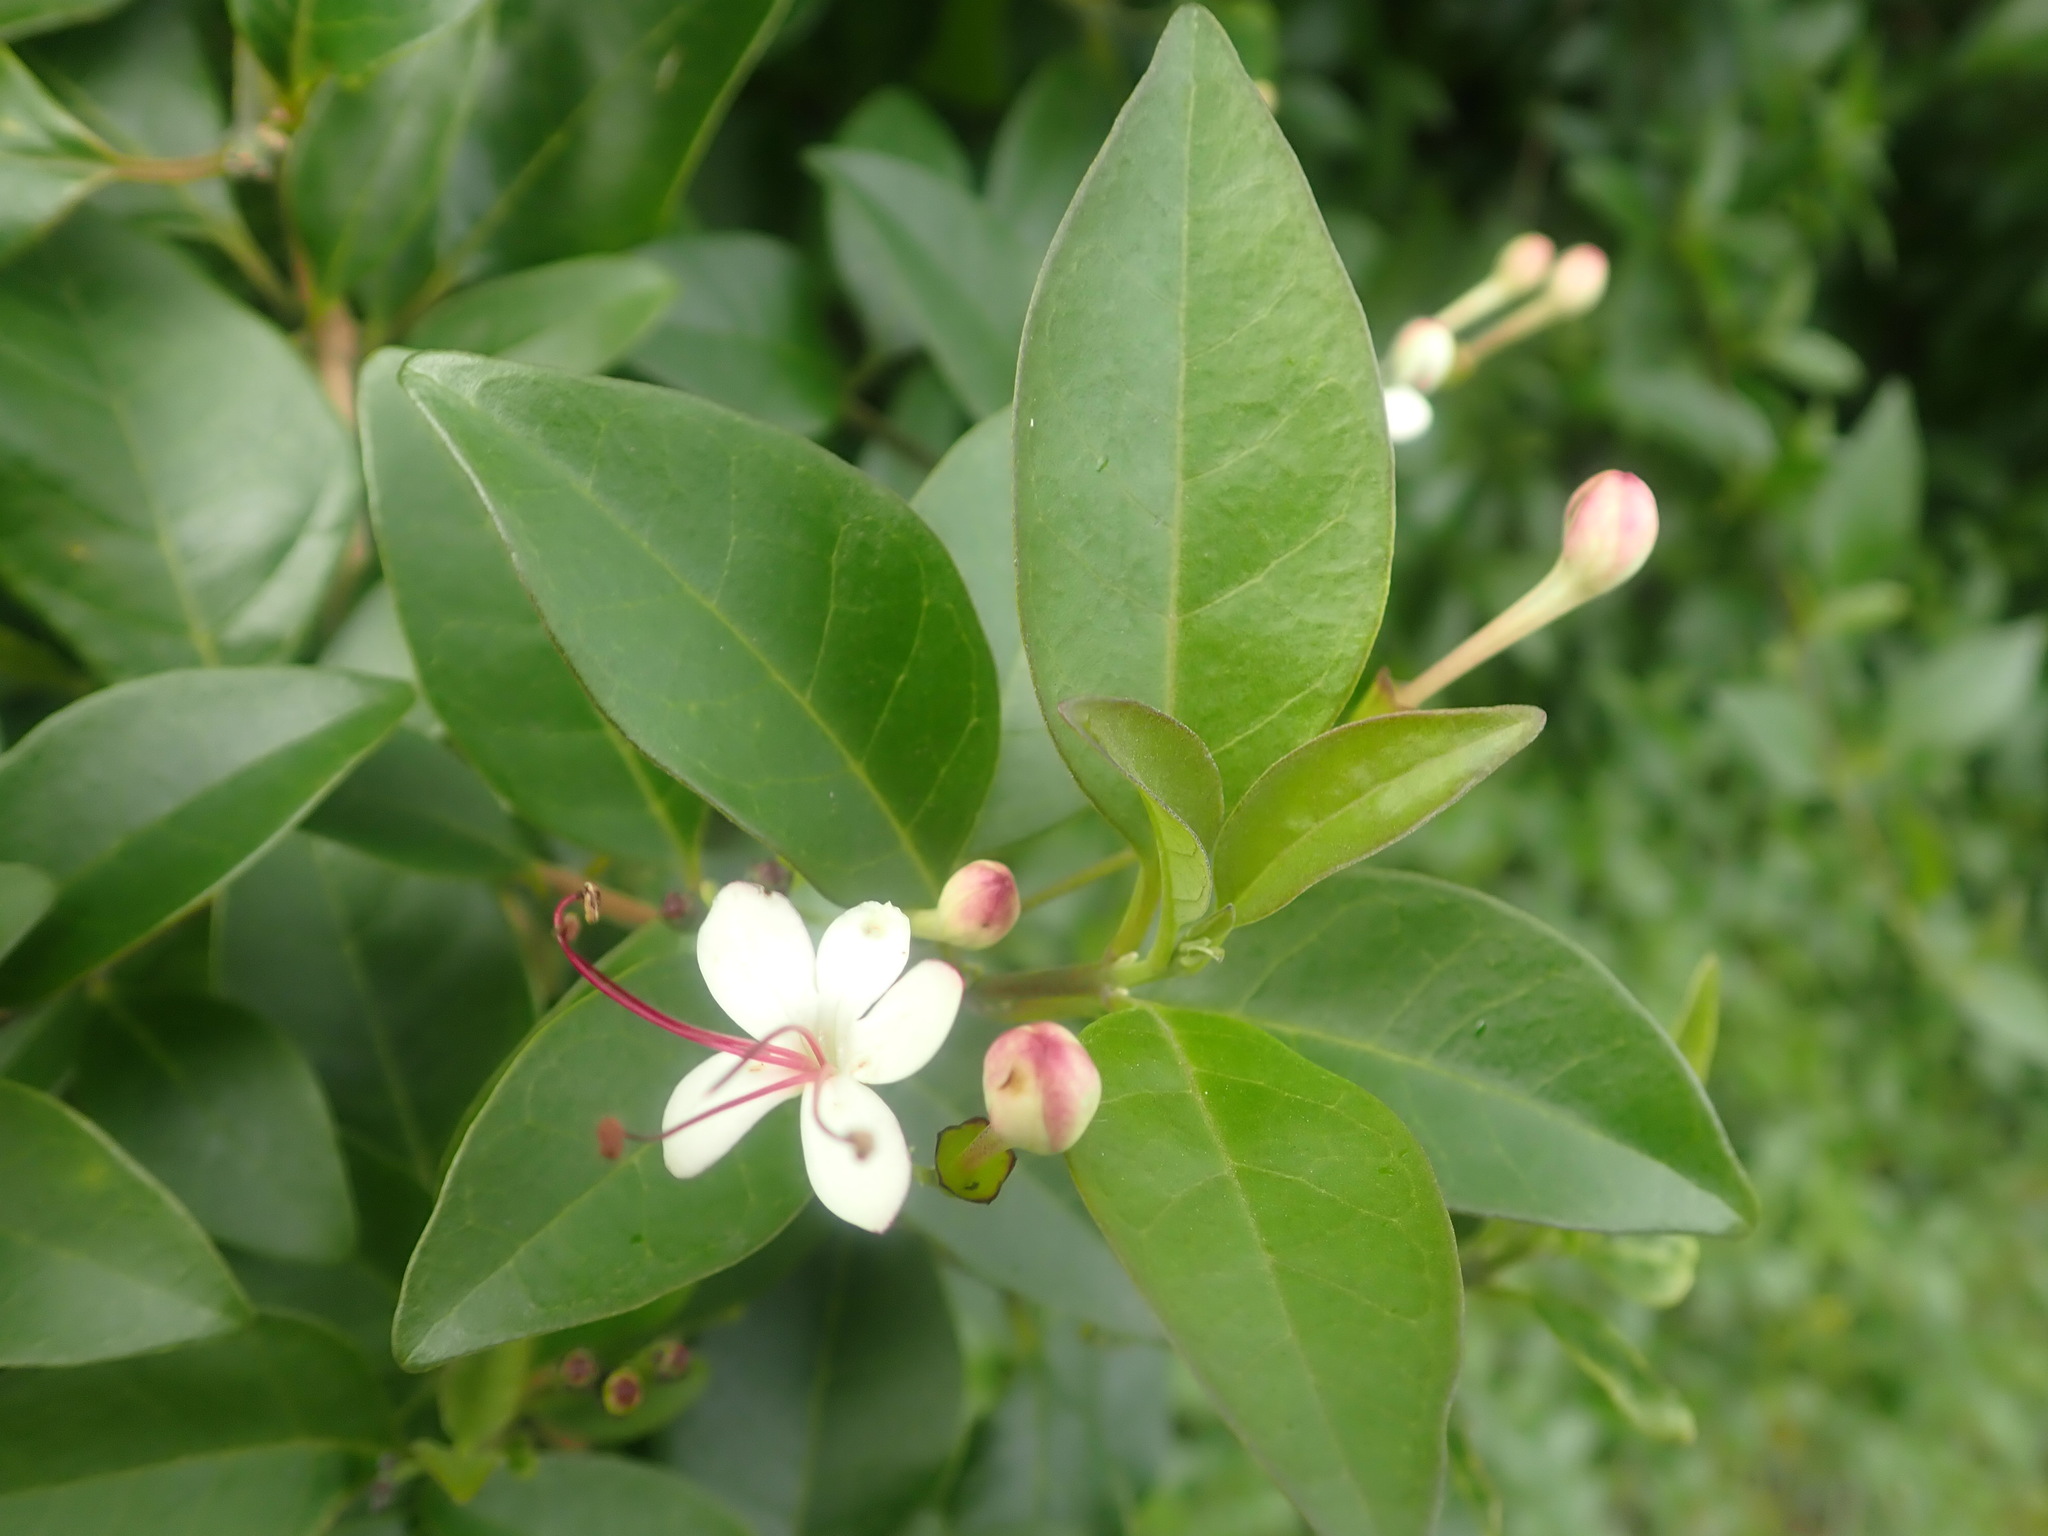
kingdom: Plantae
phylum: Tracheophyta
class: Magnoliopsida
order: Lamiales
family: Lamiaceae
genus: Volkameria
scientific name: Volkameria inermis
